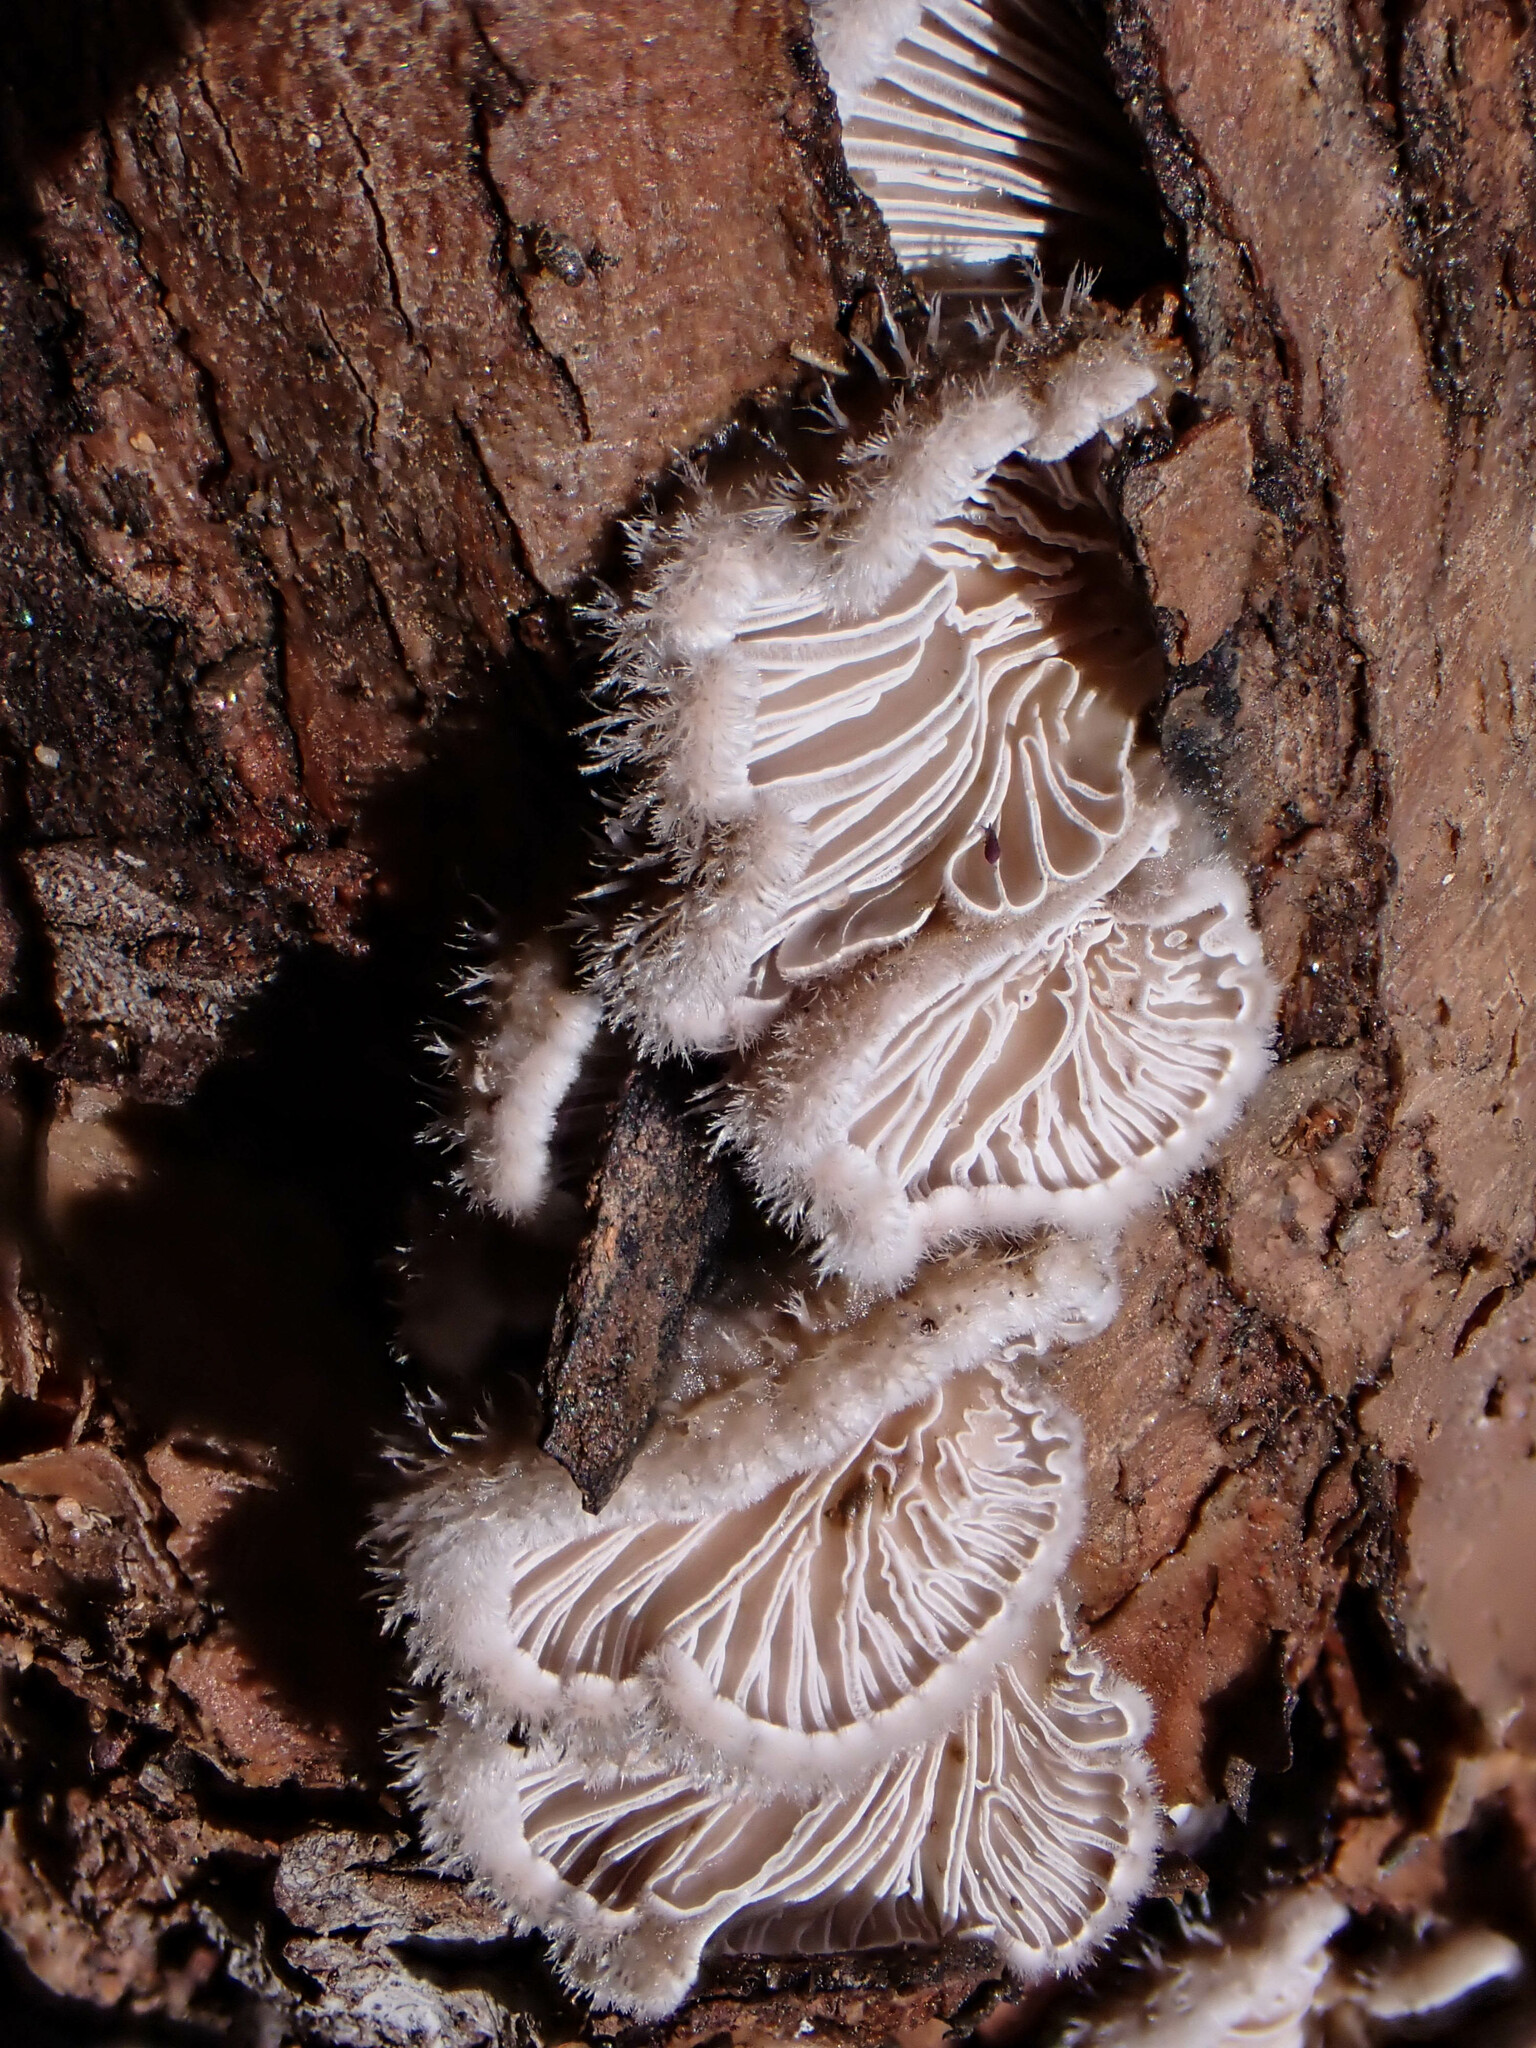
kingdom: Fungi
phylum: Basidiomycota
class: Agaricomycetes
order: Agaricales
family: Schizophyllaceae
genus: Schizophyllum
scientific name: Schizophyllum commune
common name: Common porecrust
